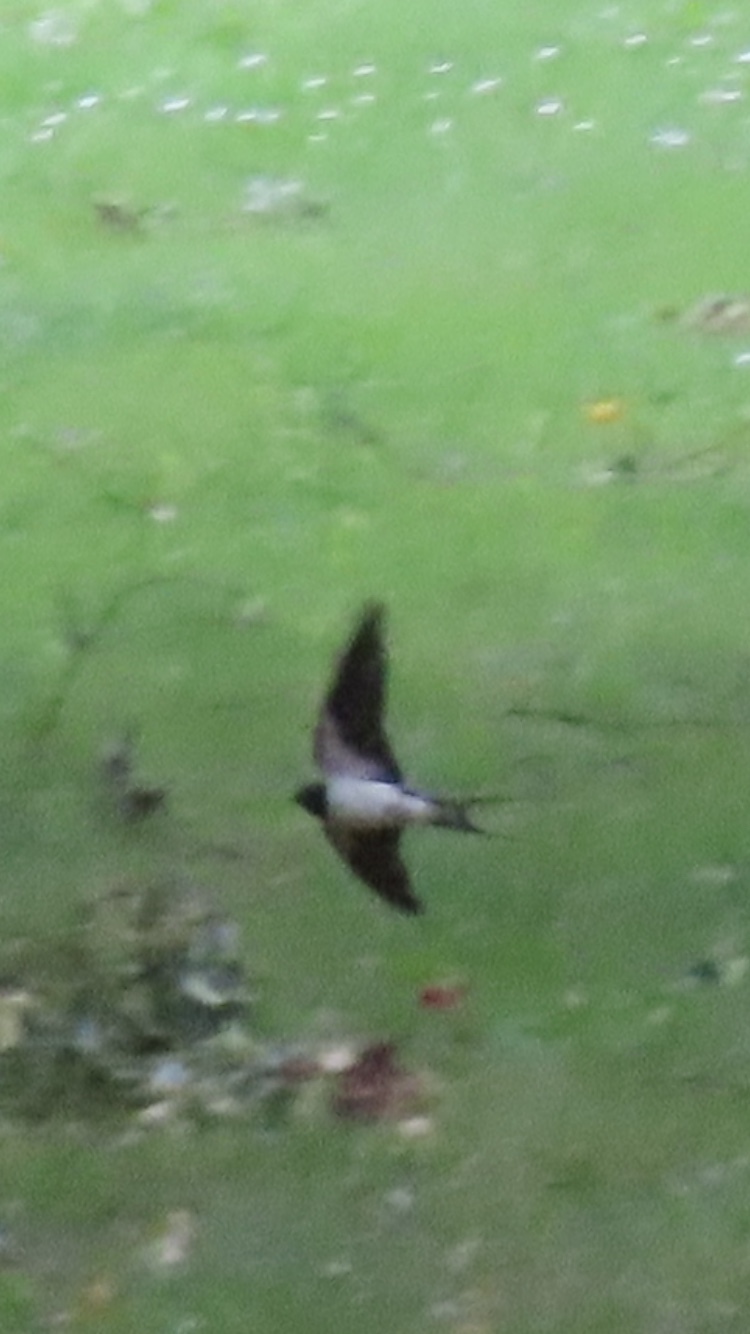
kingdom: Animalia
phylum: Chordata
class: Aves
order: Passeriformes
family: Hirundinidae
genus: Hirundo
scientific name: Hirundo rustica
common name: Barn swallow
